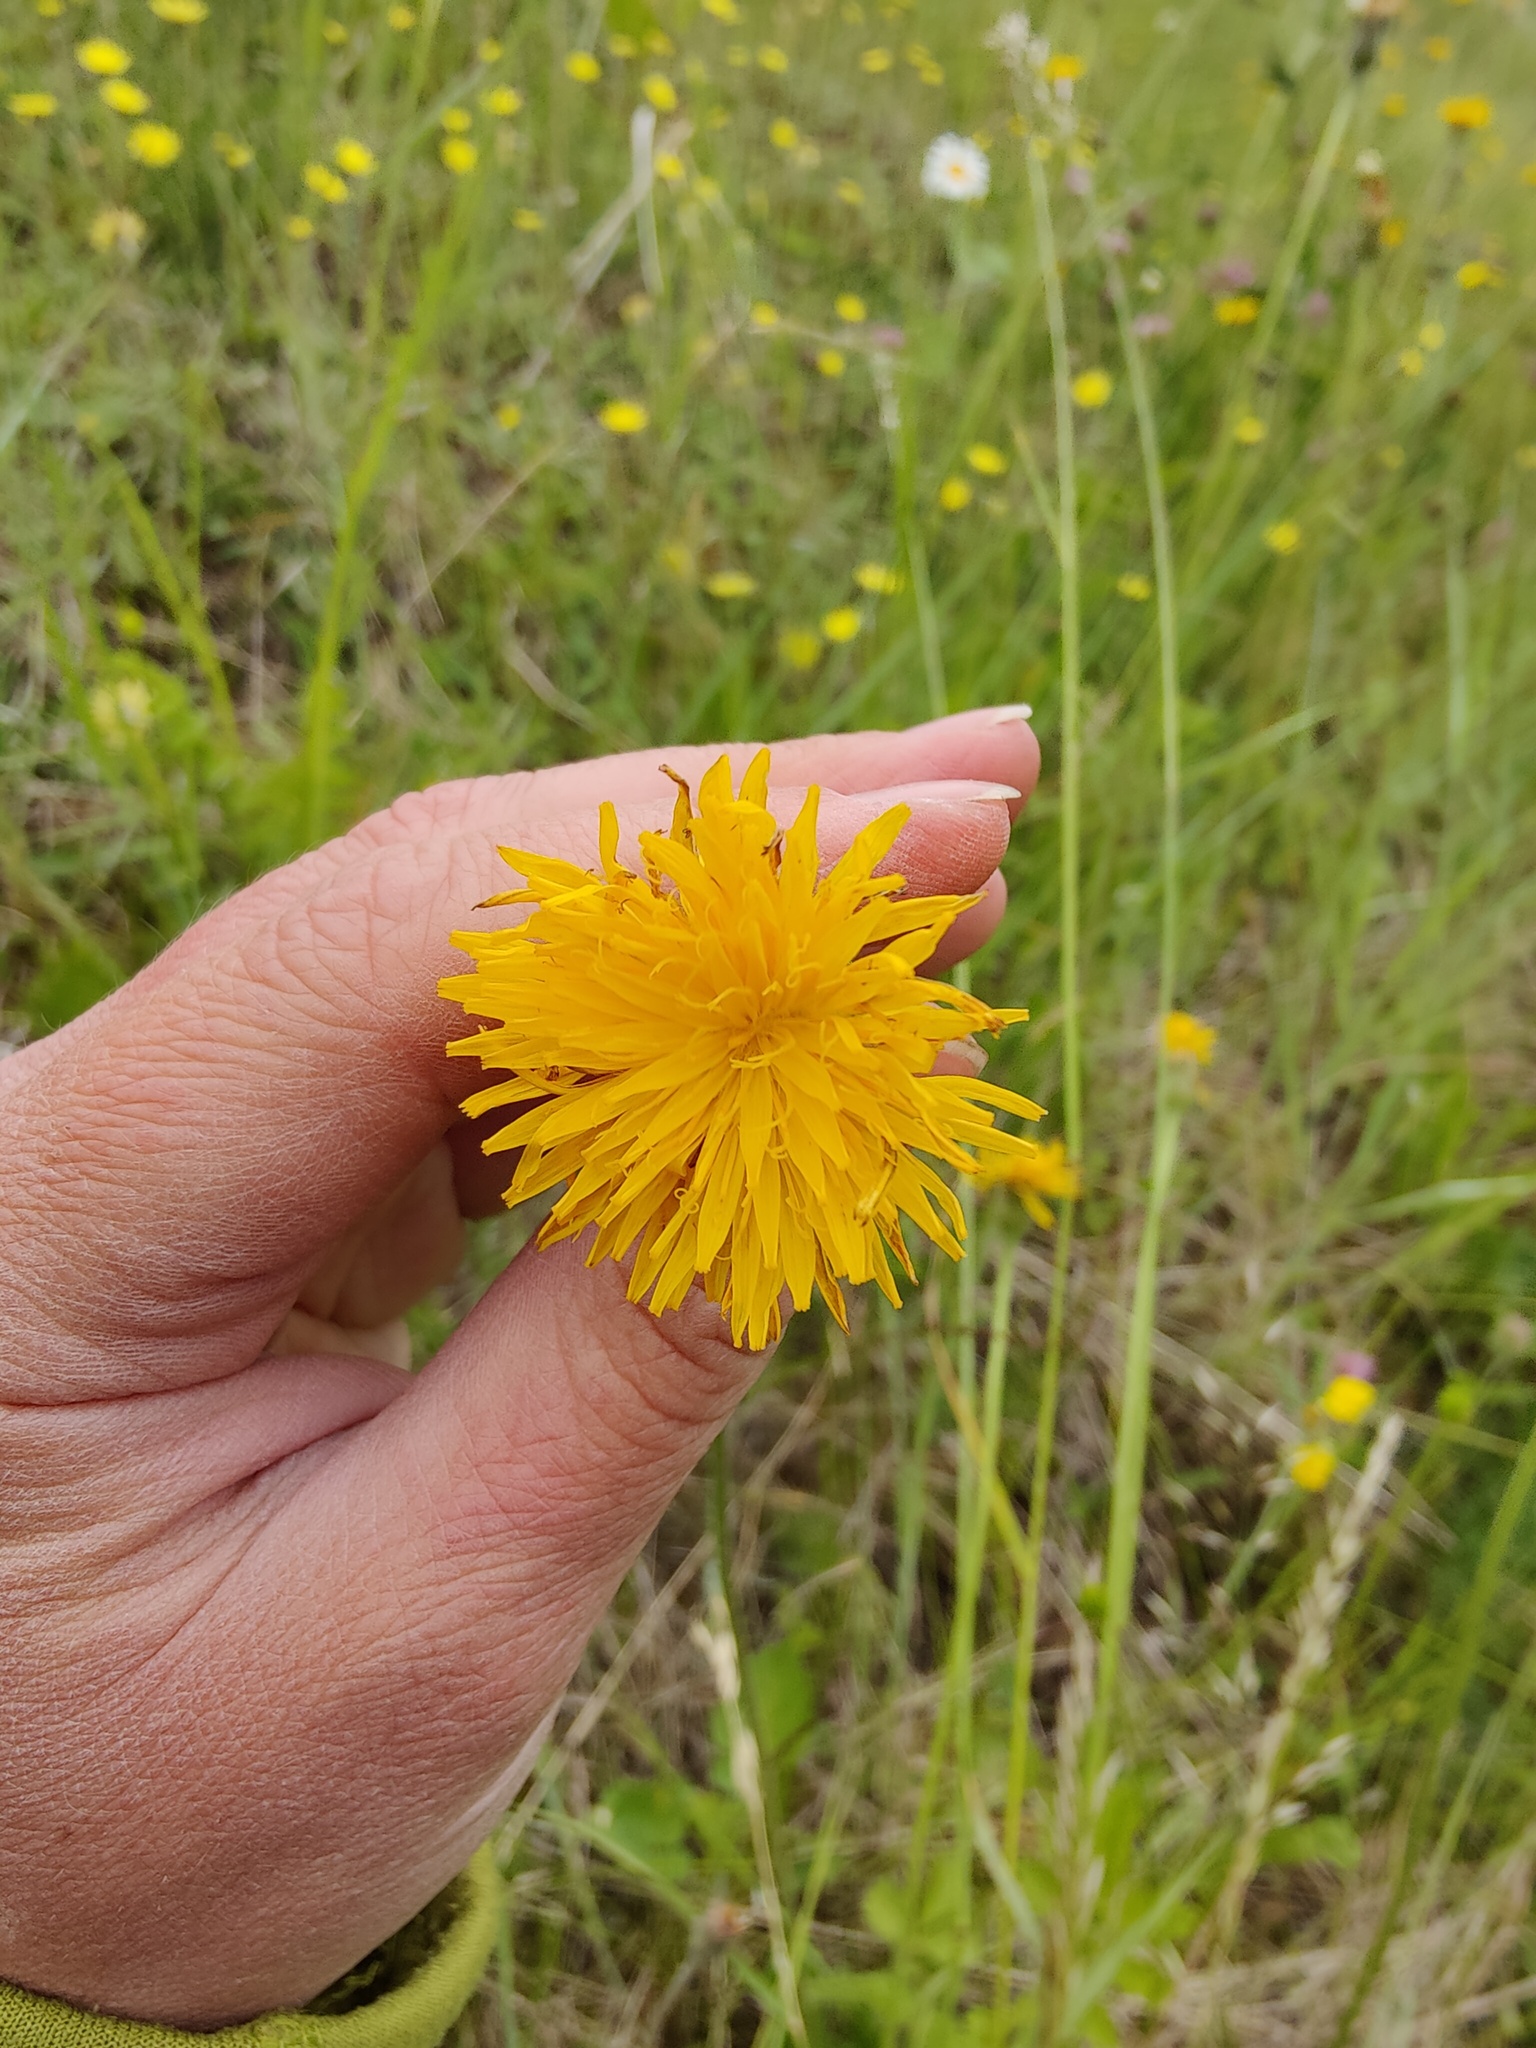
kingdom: Plantae
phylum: Tracheophyta
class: Magnoliopsida
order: Asterales
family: Asteraceae
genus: Leontodon
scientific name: Leontodon hispidus
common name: Rough hawkbit
